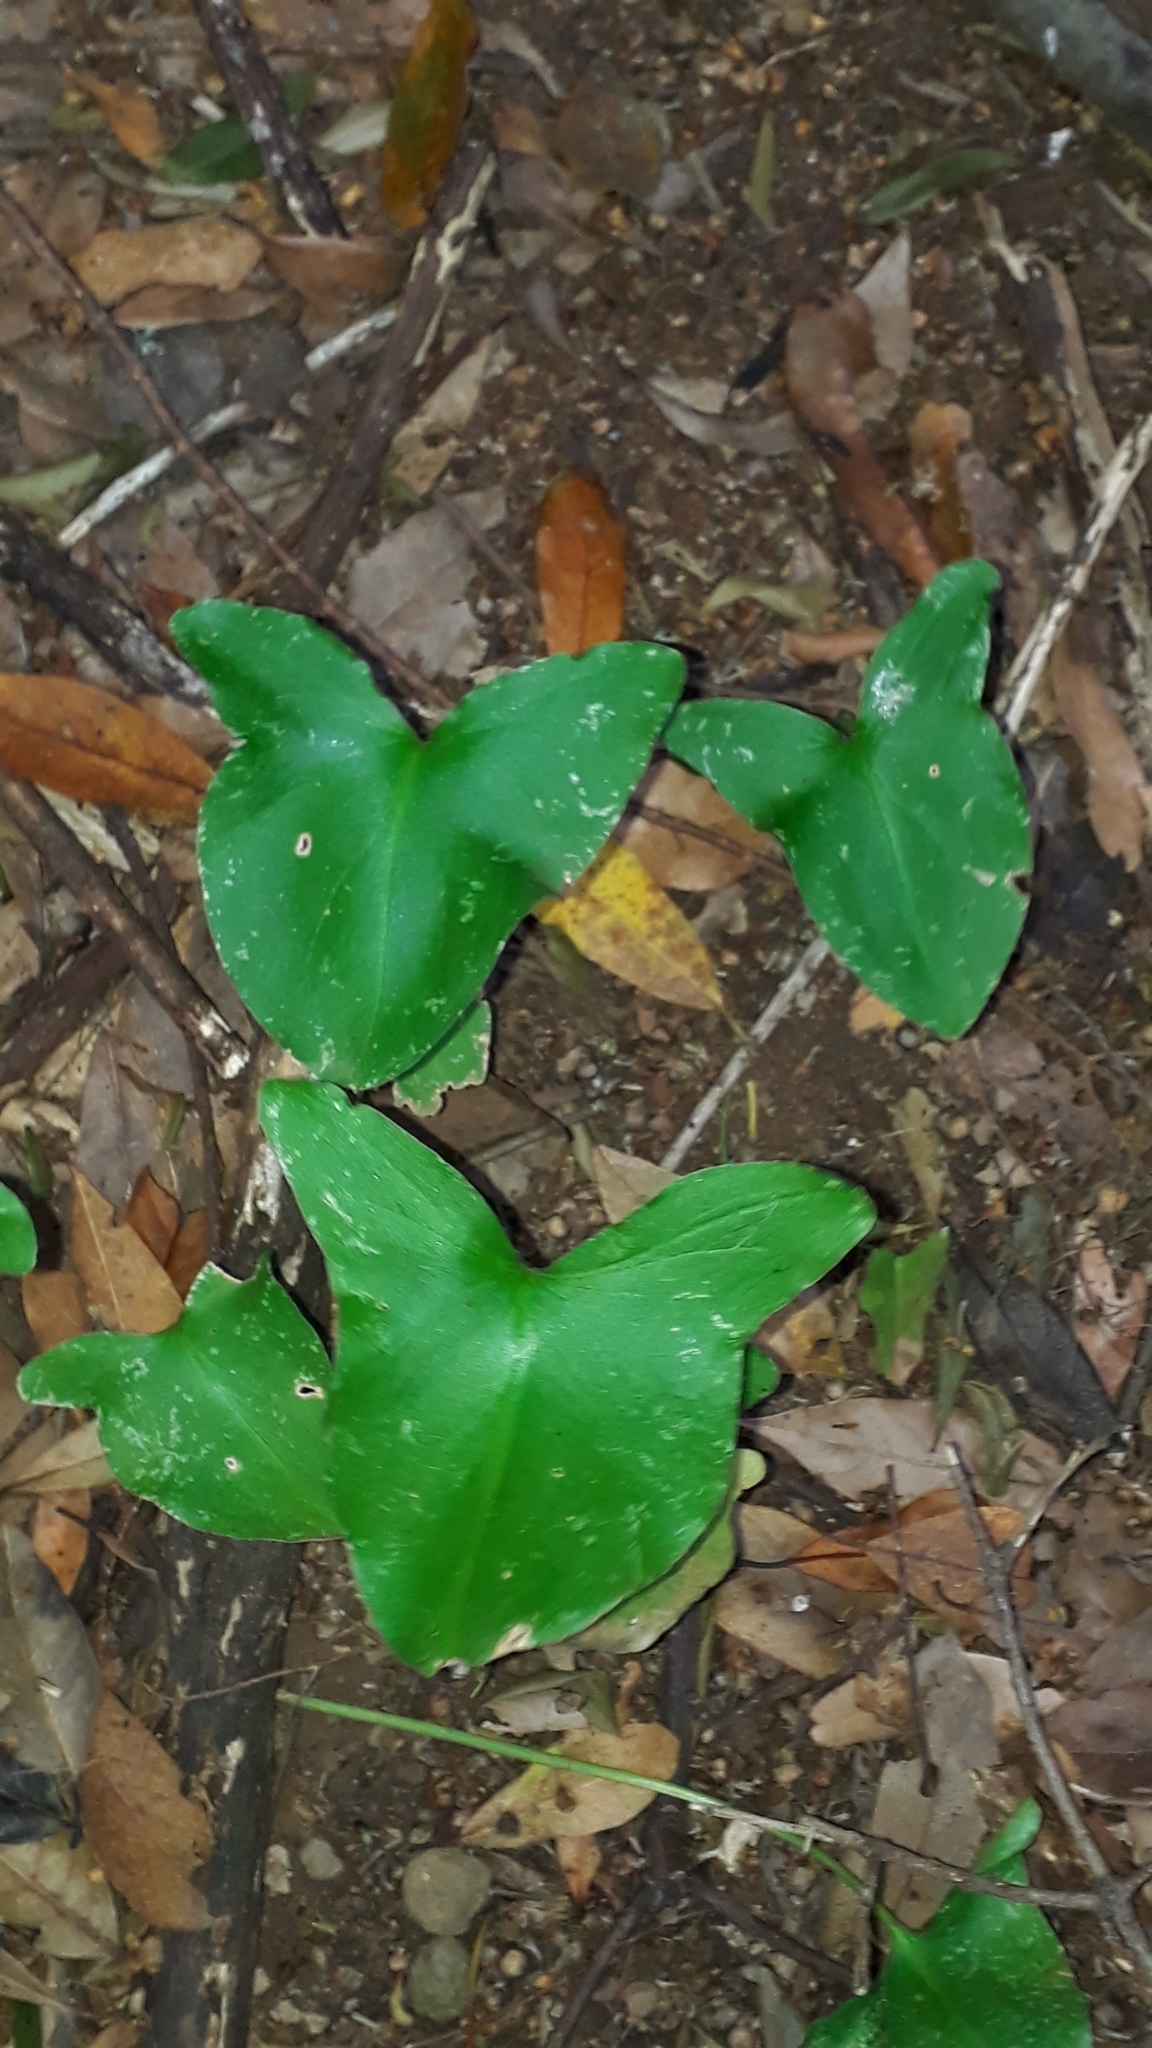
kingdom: Plantae
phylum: Tracheophyta
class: Liliopsida
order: Alismatales
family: Araceae
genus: Arisarum
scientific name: Arisarum simorrhinum
